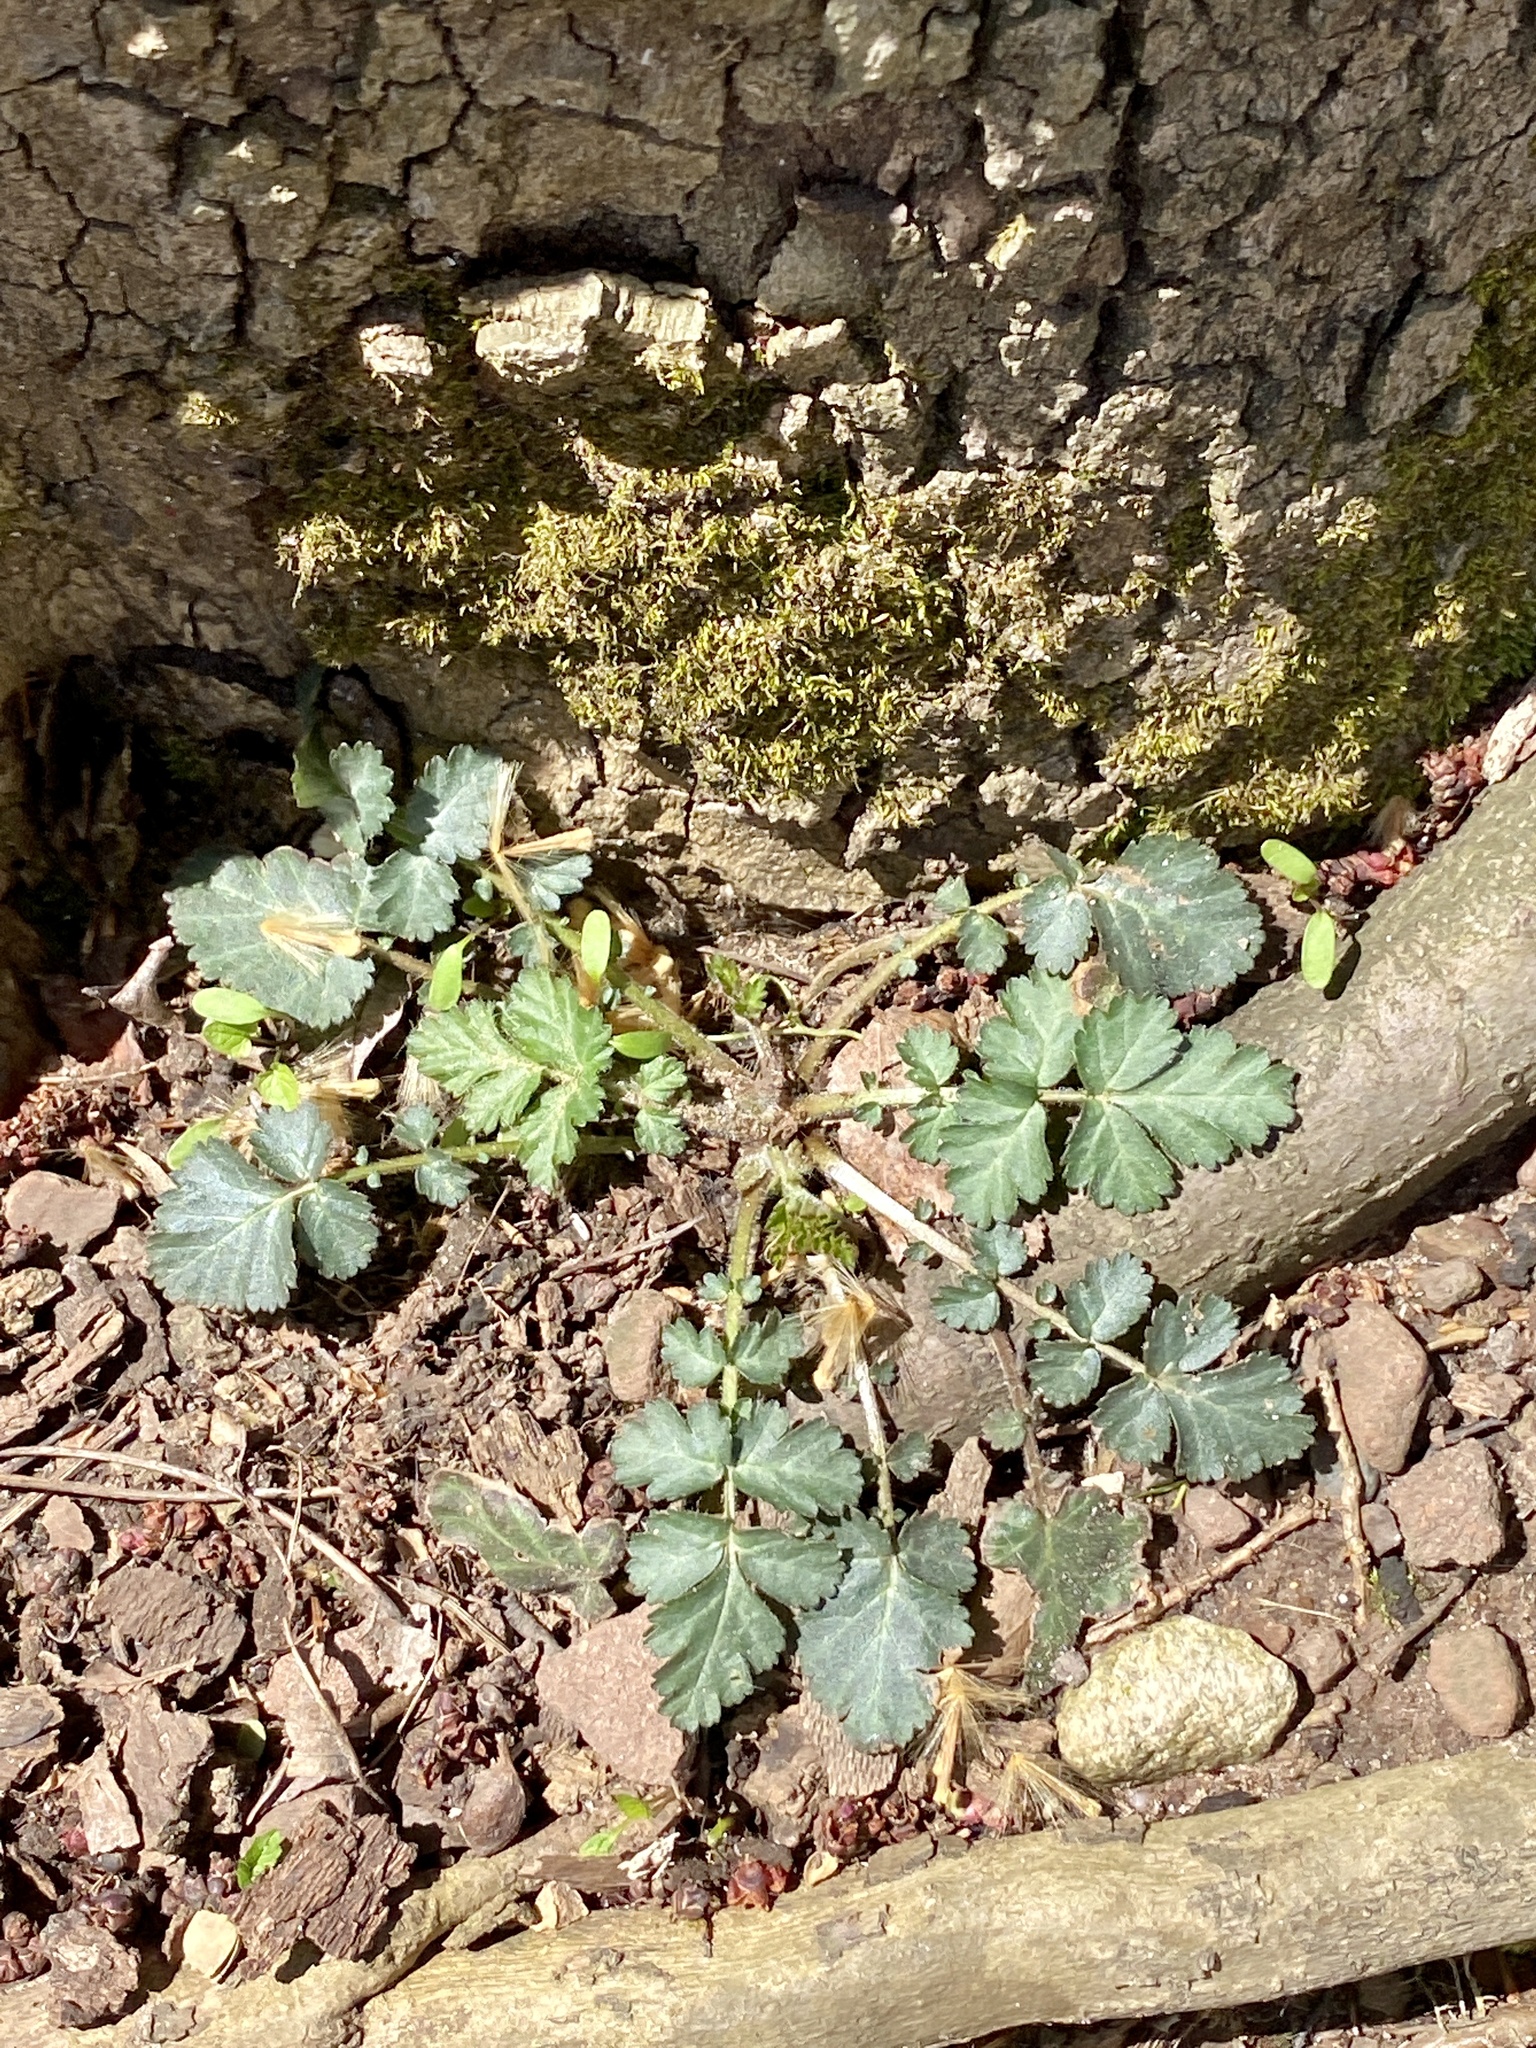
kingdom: Plantae
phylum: Tracheophyta
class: Magnoliopsida
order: Rosales
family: Rosaceae
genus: Geum
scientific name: Geum canadense
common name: White avens
